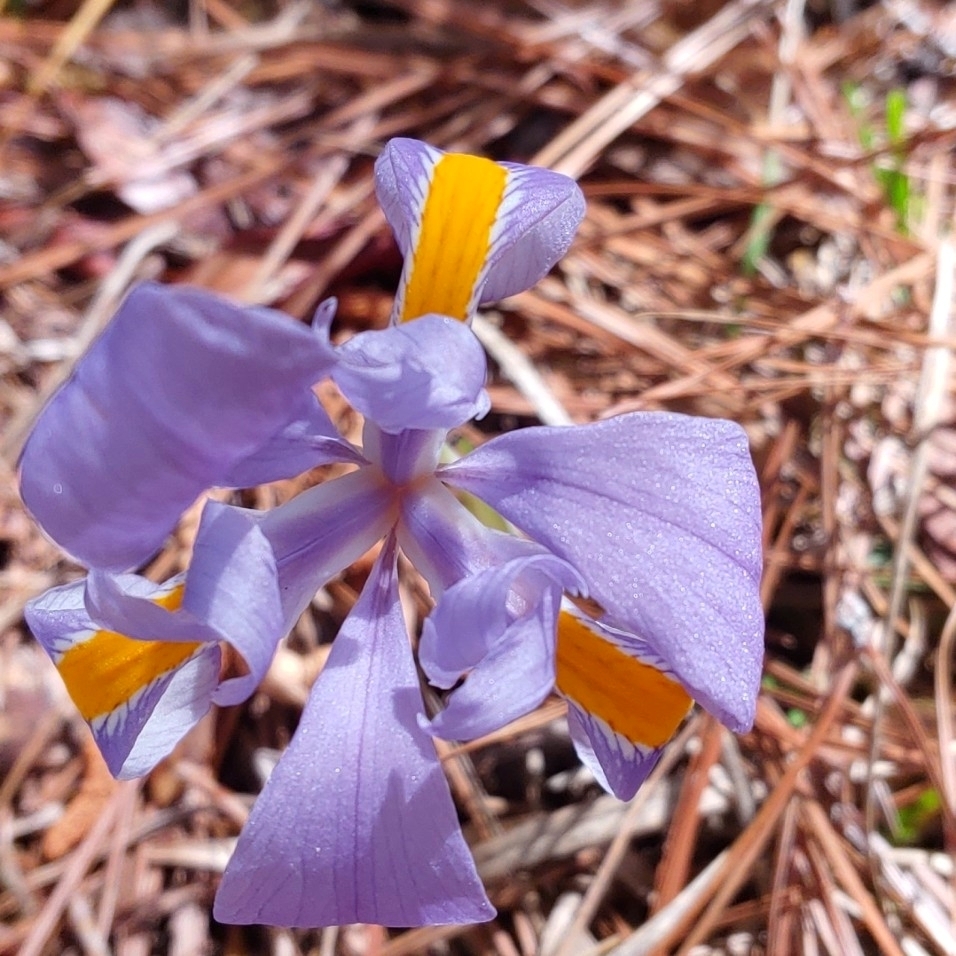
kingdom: Plantae
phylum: Tracheophyta
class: Liliopsida
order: Asparagales
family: Iridaceae
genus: Iris
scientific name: Iris verna
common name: Dwarf iris
